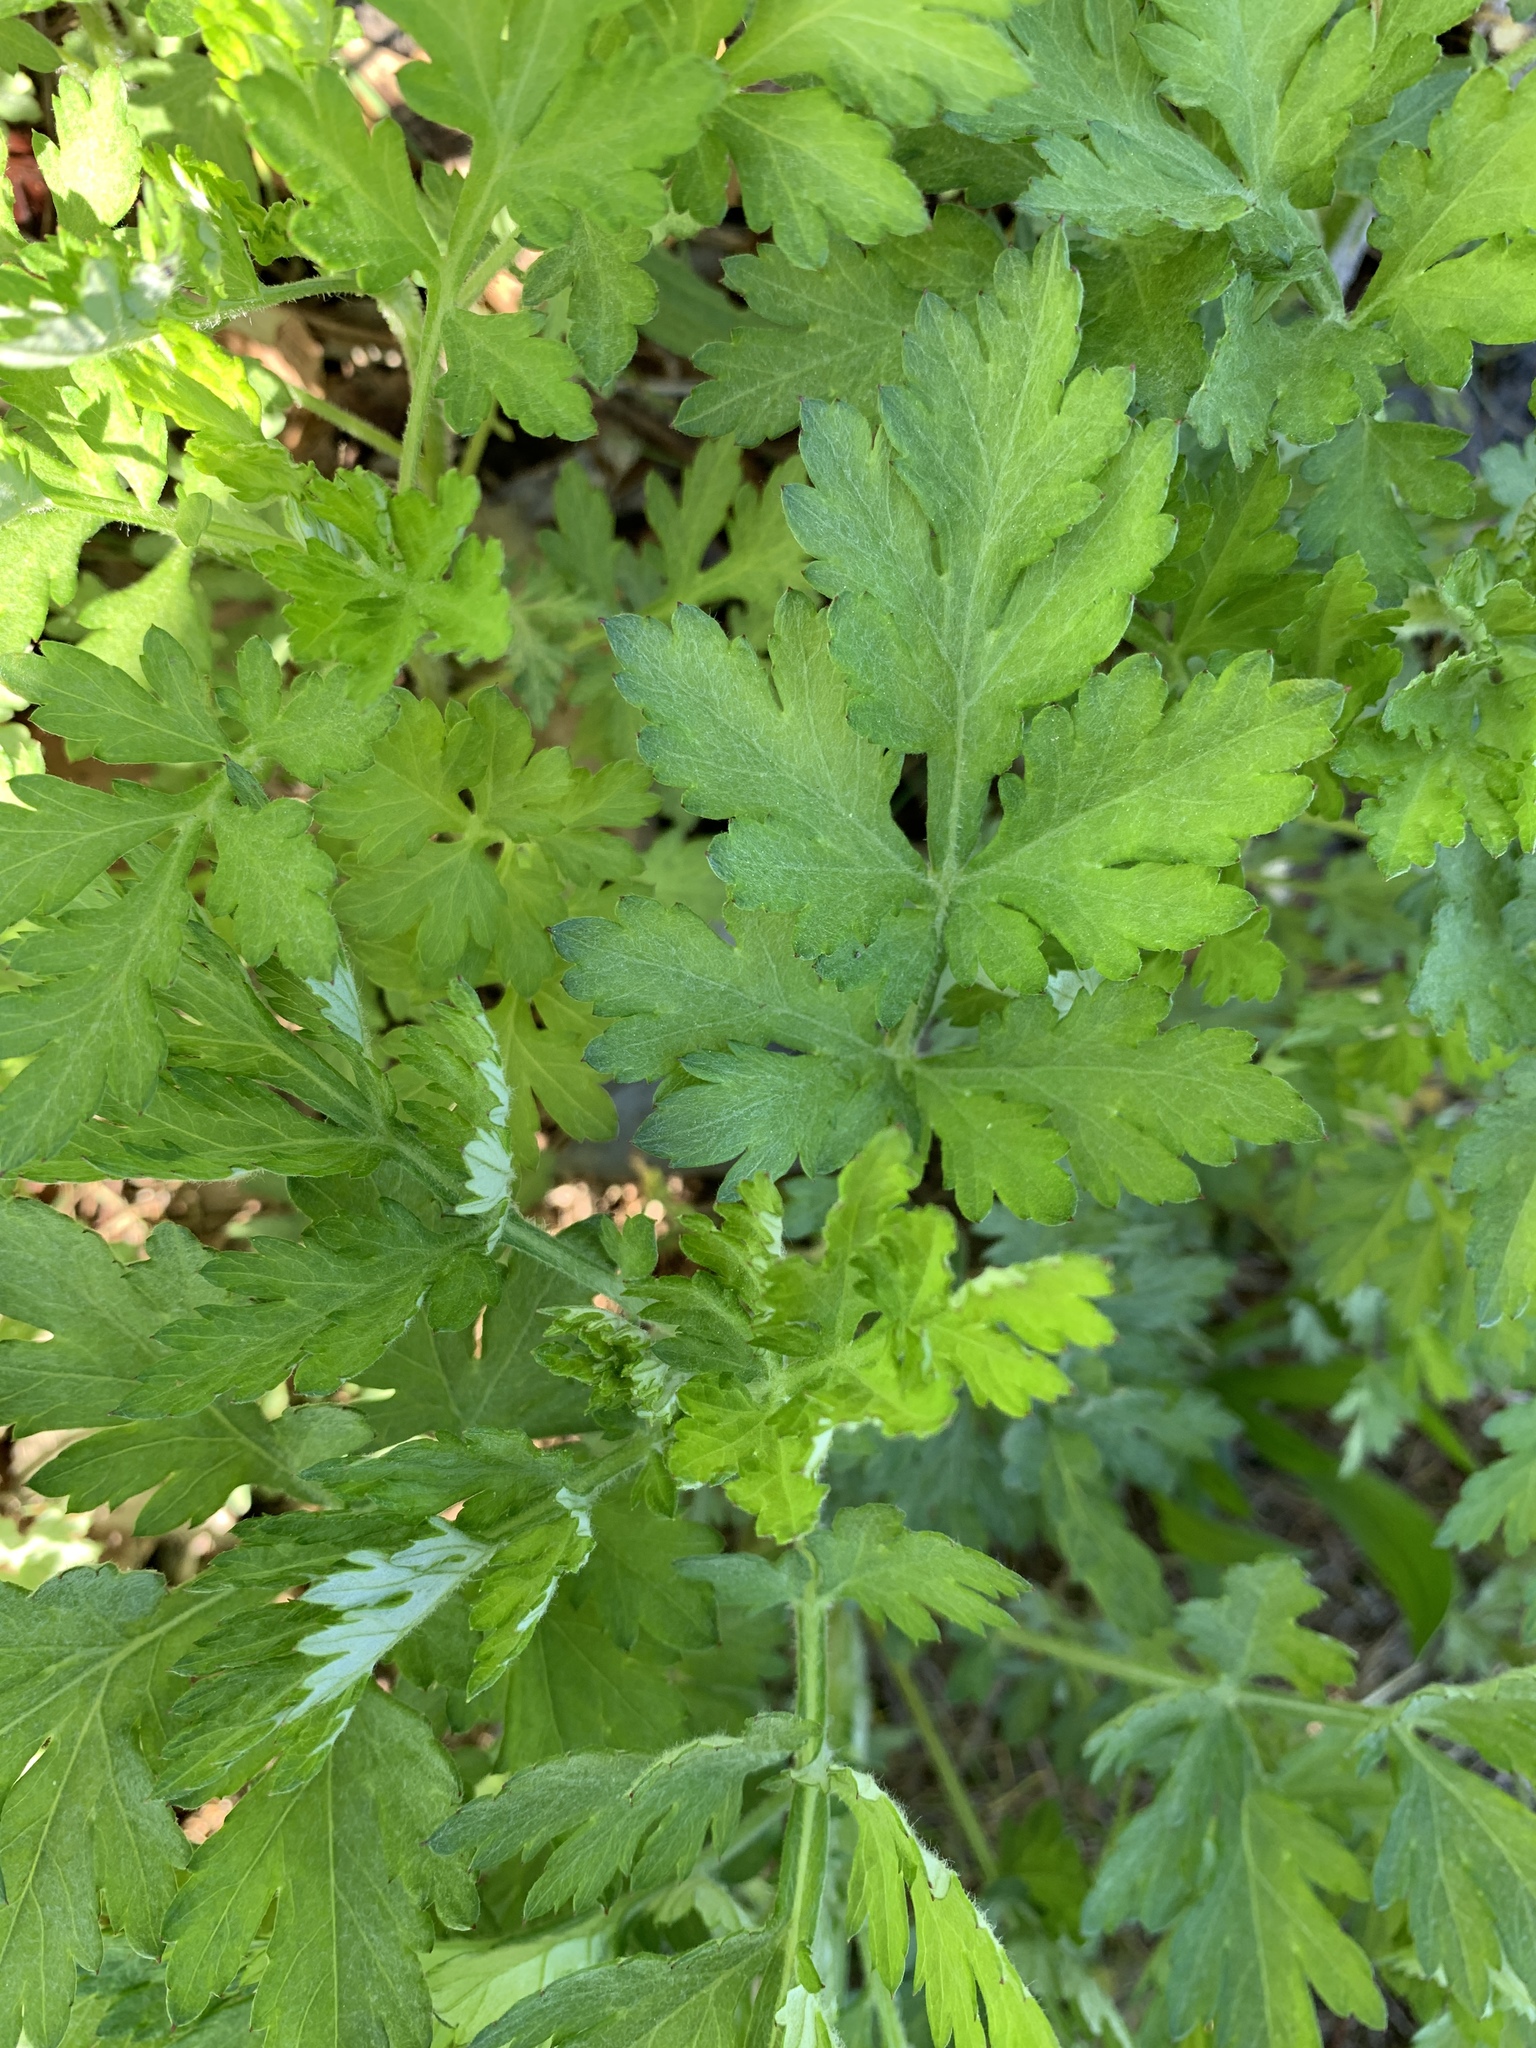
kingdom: Plantae
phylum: Tracheophyta
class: Magnoliopsida
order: Asterales
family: Asteraceae
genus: Artemisia
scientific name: Artemisia vulgaris
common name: Mugwort
